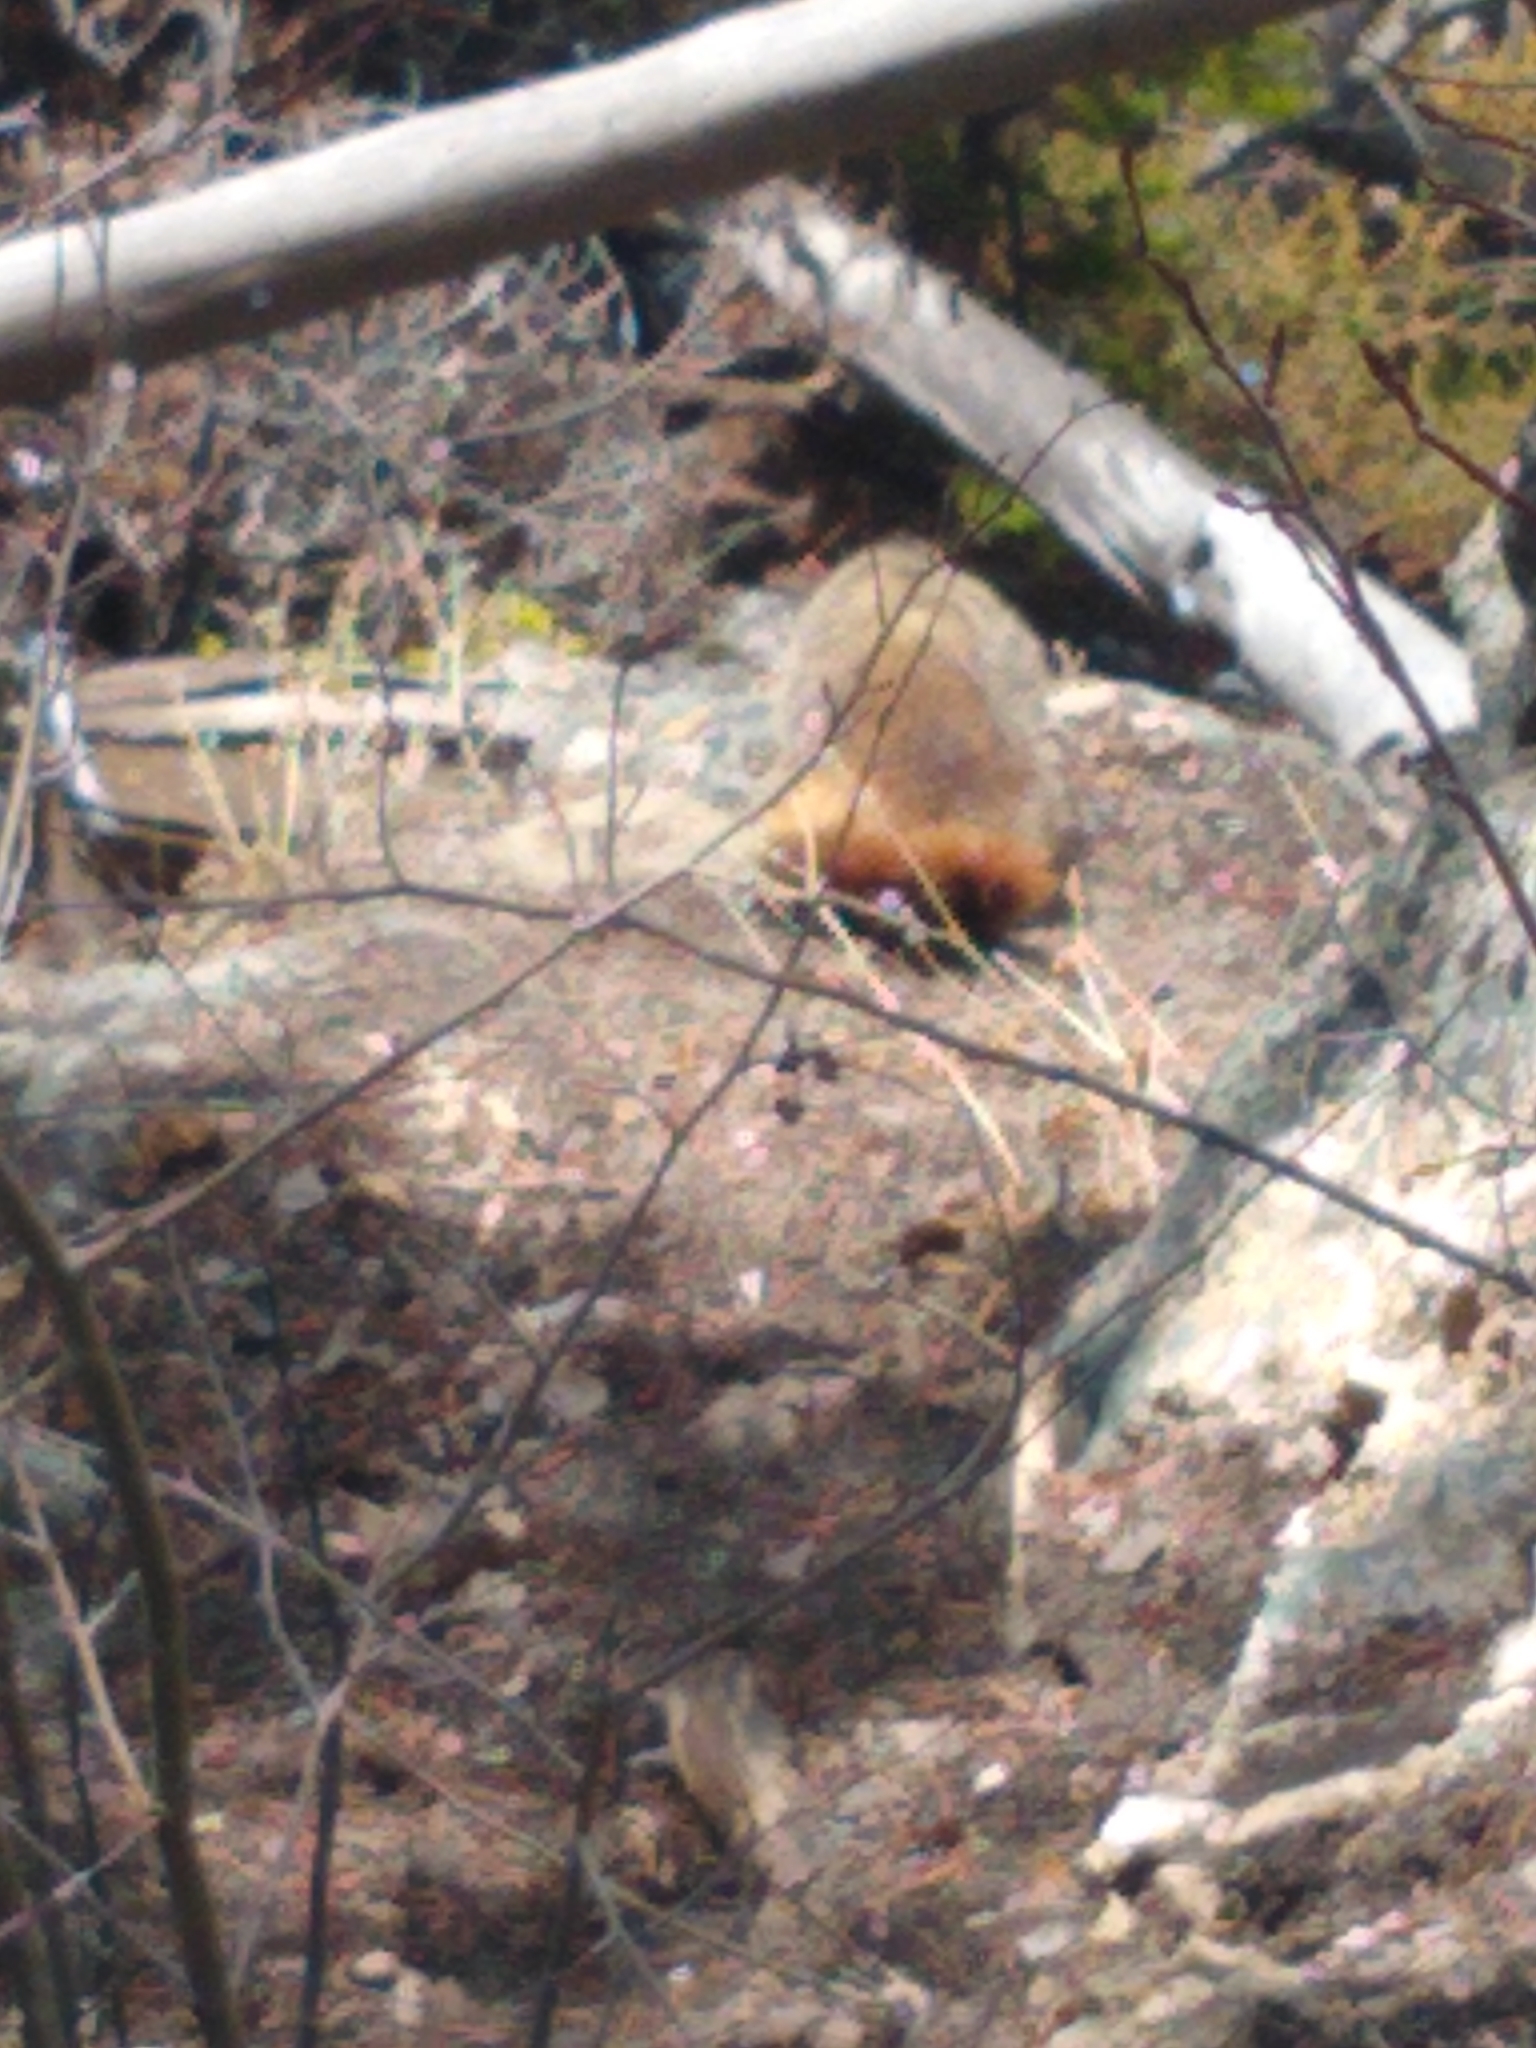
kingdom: Animalia
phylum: Chordata
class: Mammalia
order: Rodentia
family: Sciuridae
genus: Marmota
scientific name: Marmota flaviventris
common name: Yellow-bellied marmot
